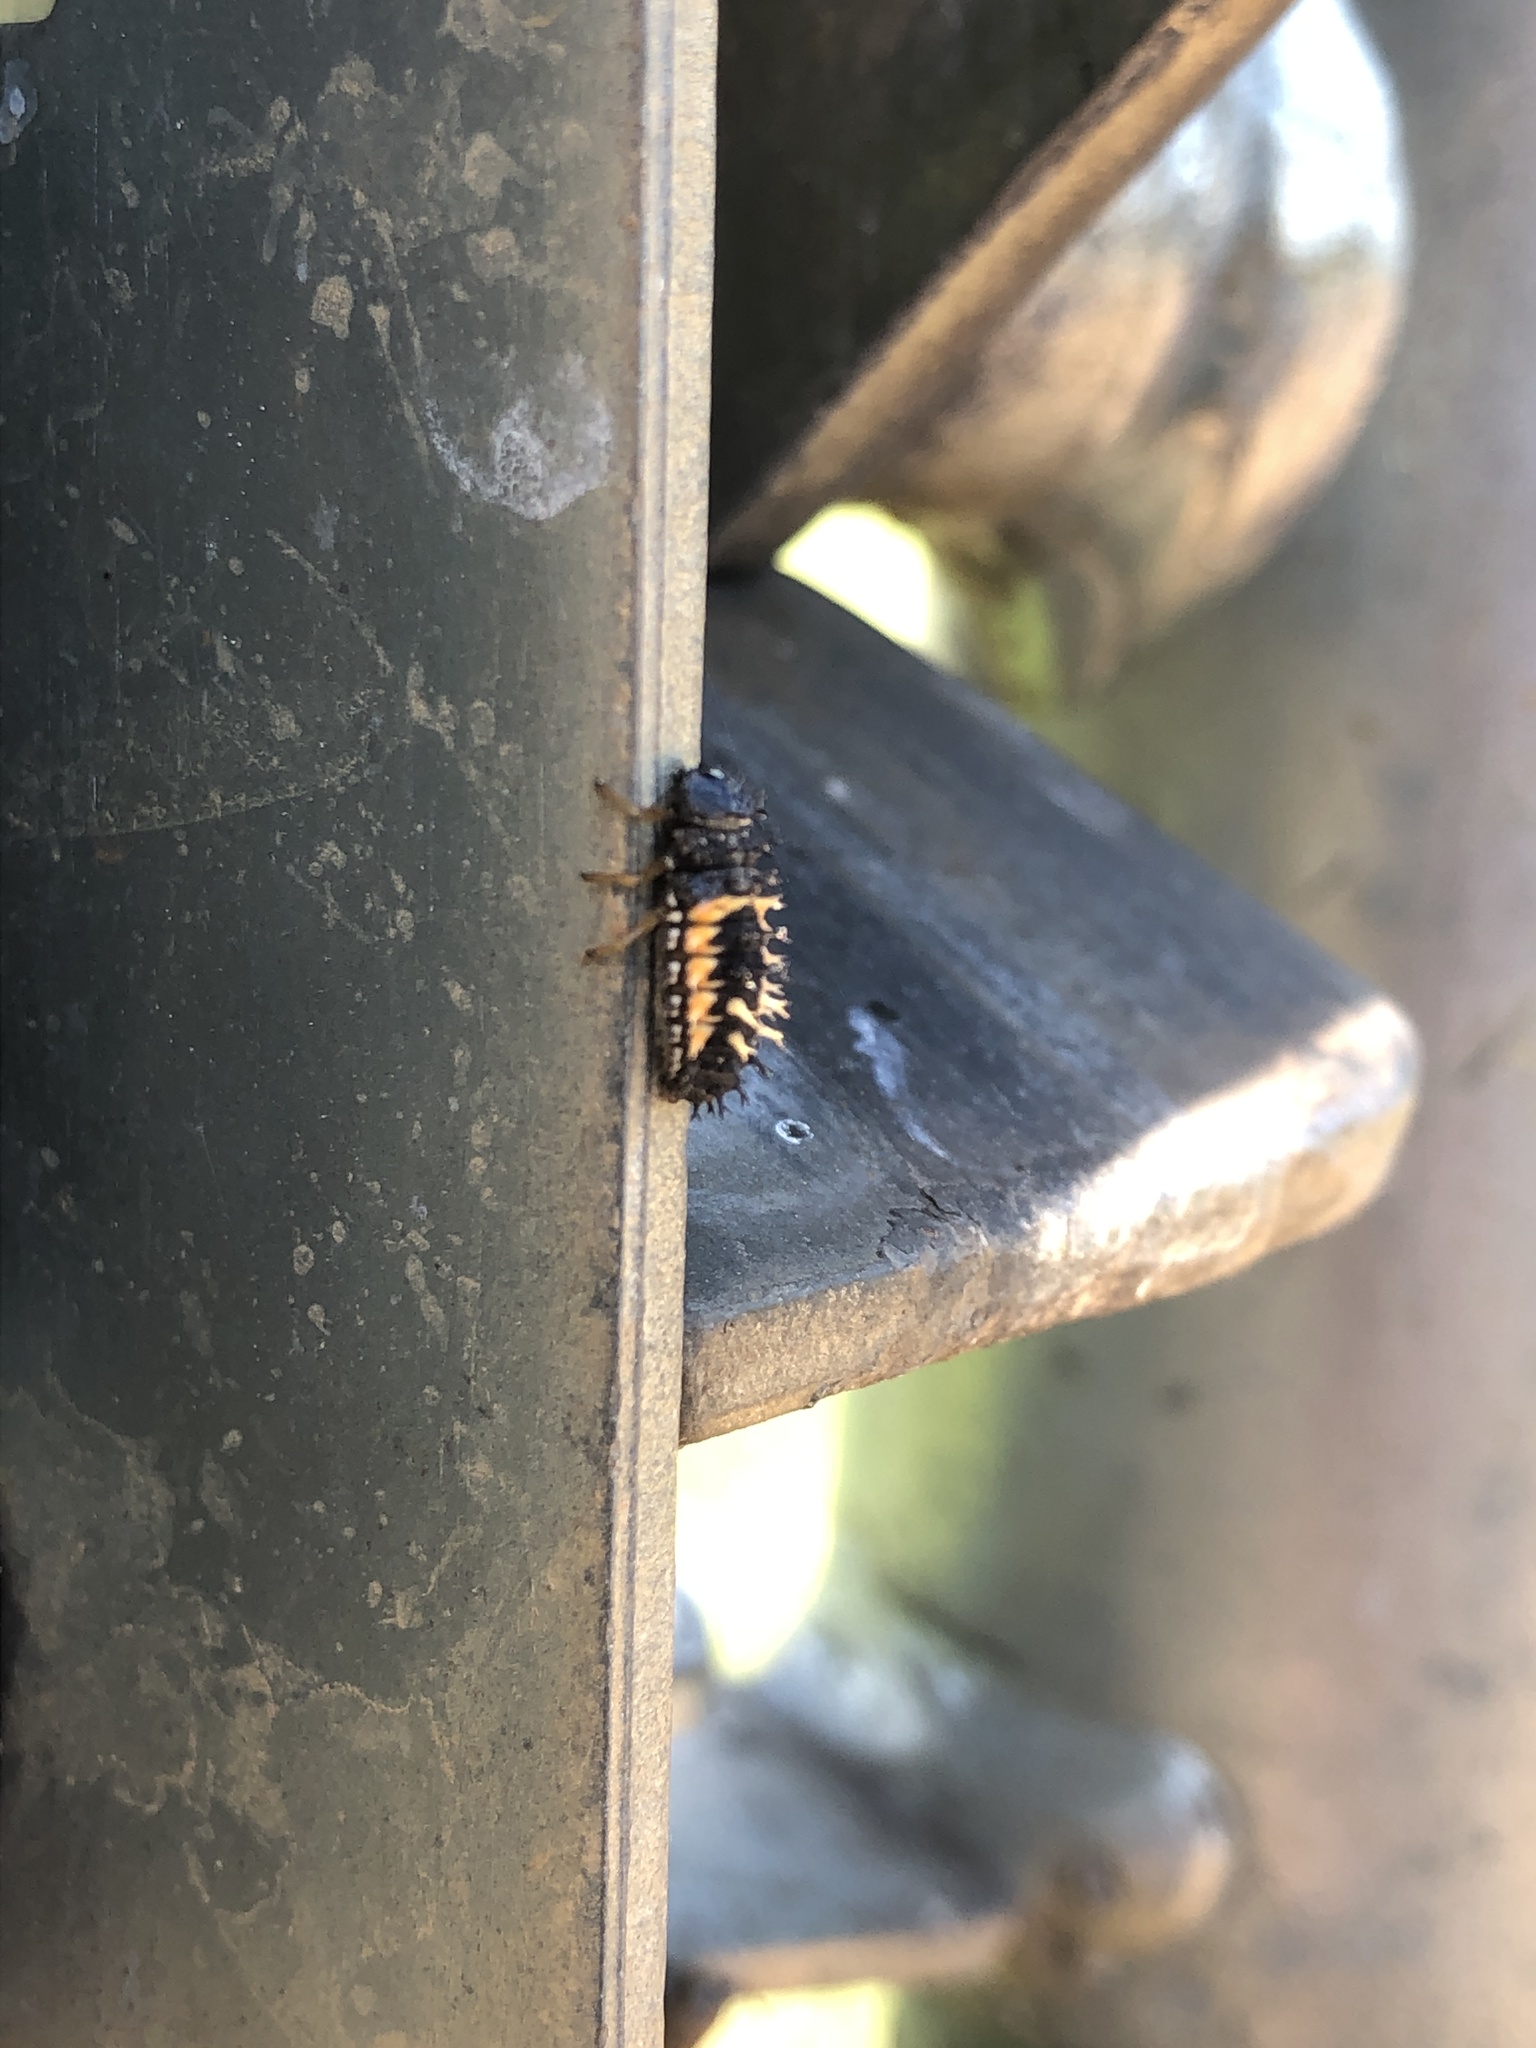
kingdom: Animalia
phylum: Arthropoda
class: Insecta
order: Coleoptera
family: Coccinellidae
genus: Harmonia
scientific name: Harmonia axyridis
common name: Harlequin ladybird
